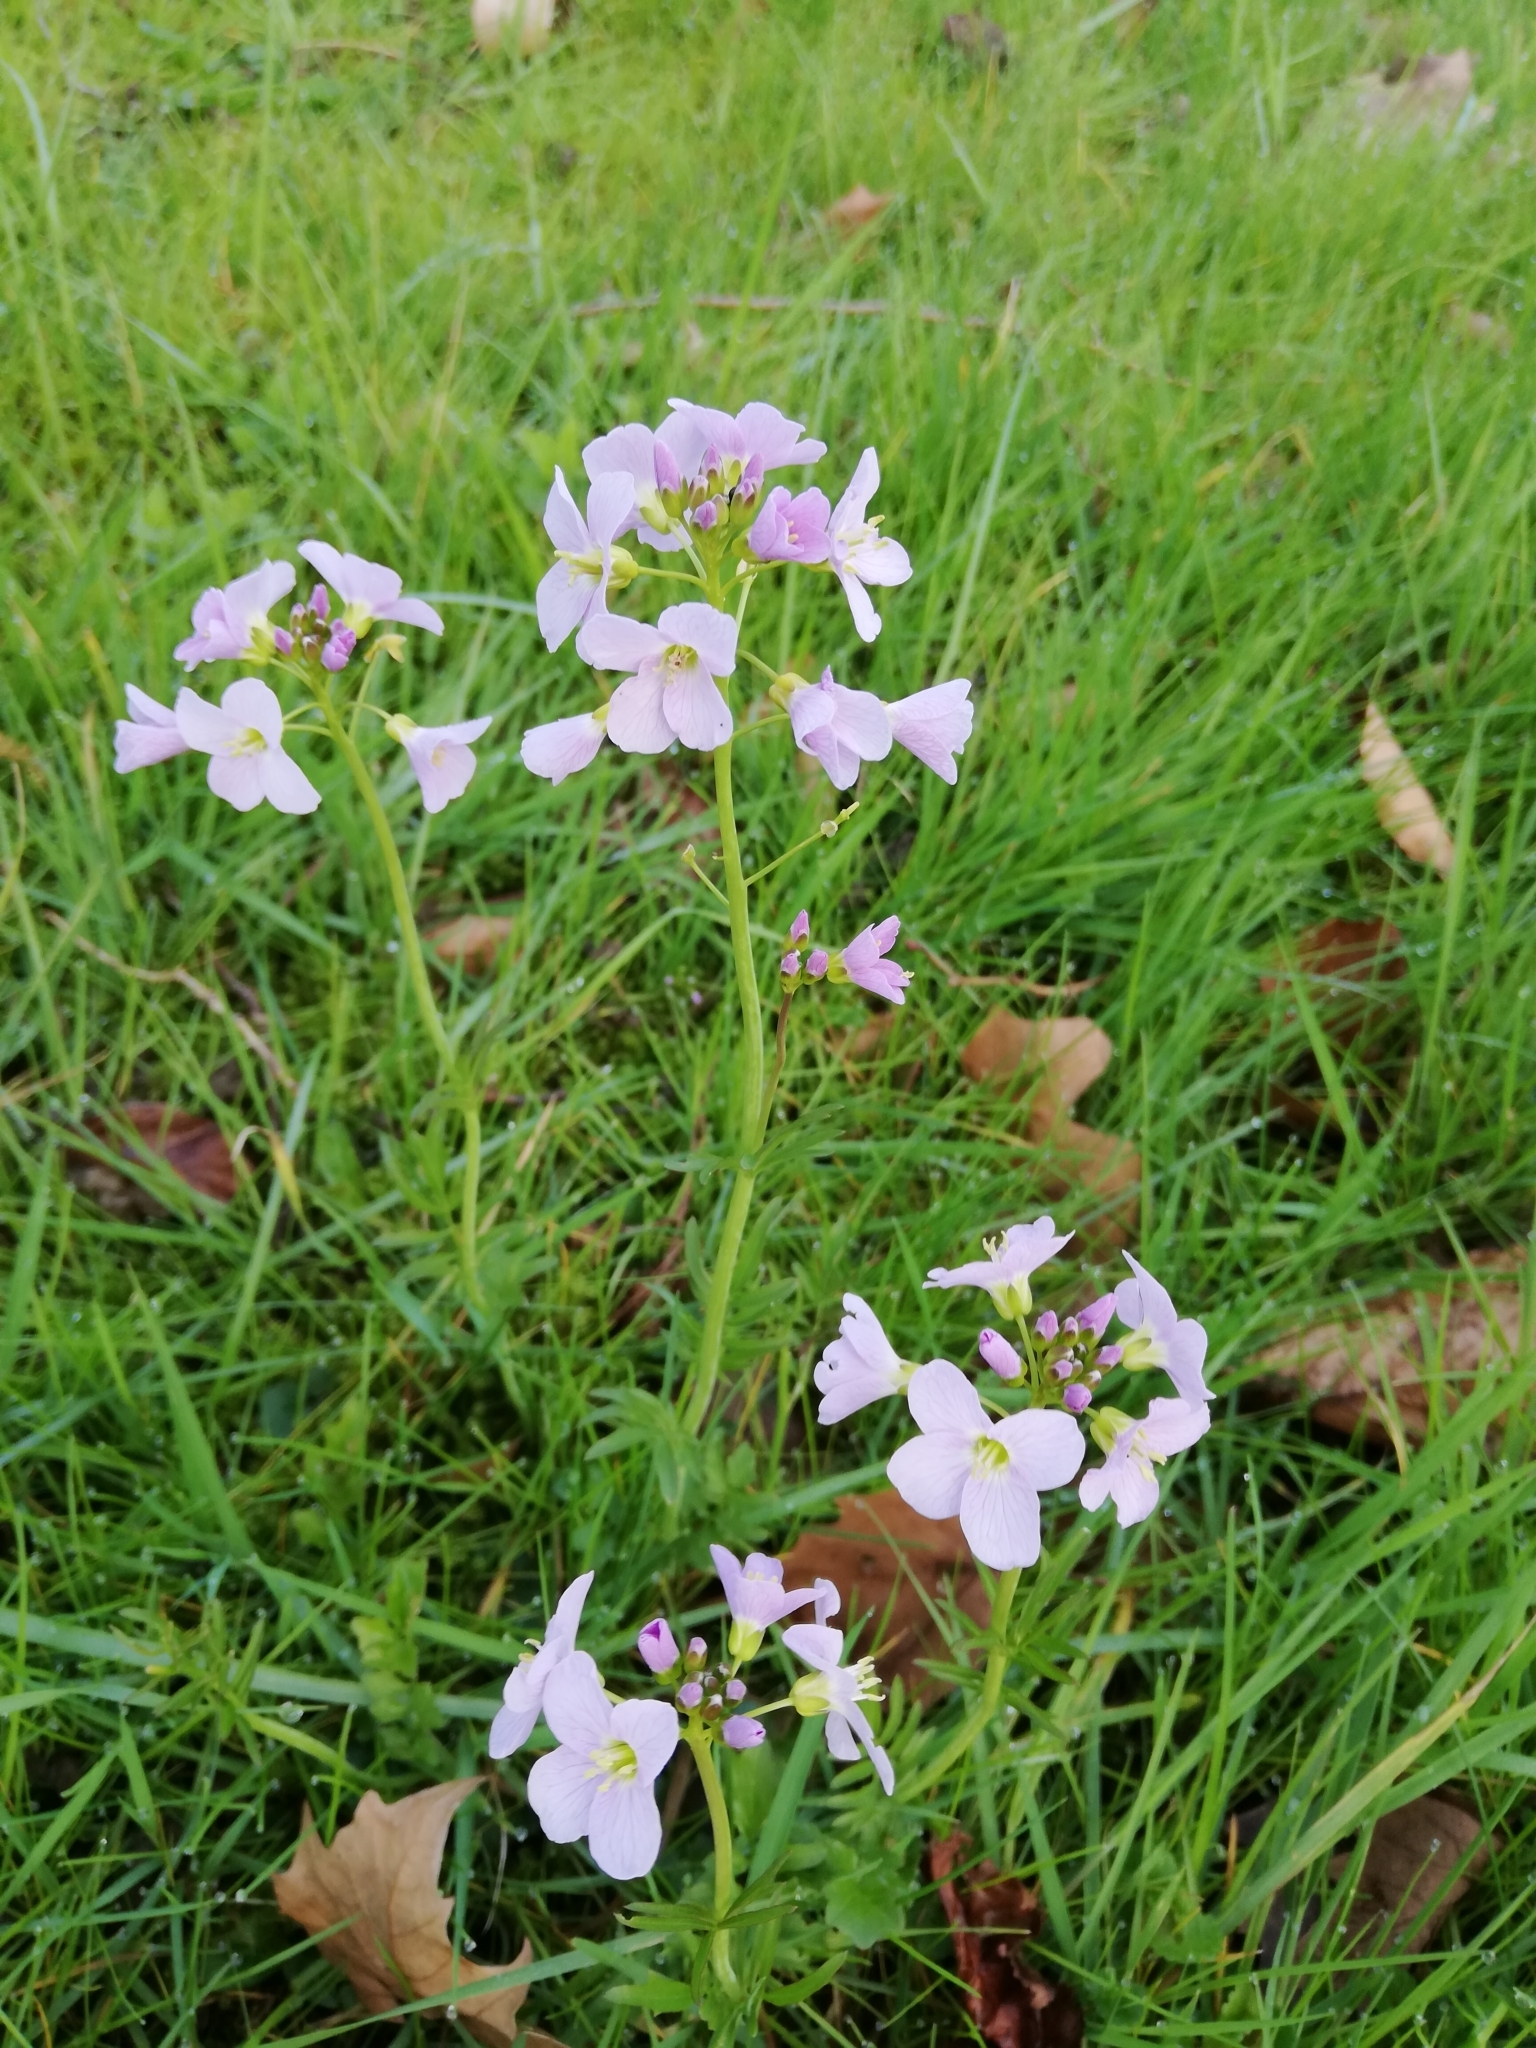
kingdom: Plantae
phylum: Tracheophyta
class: Magnoliopsida
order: Brassicales
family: Brassicaceae
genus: Cardamine
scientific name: Cardamine pratensis
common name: Cuckoo flower
